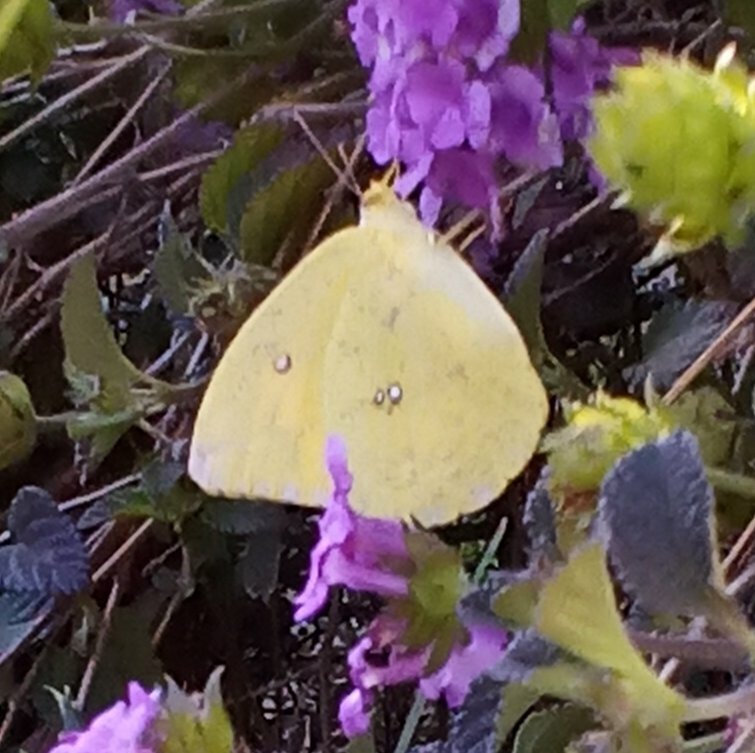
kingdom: Animalia
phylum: Arthropoda
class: Insecta
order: Lepidoptera
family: Pieridae
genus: Phoebis
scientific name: Phoebis agarithe
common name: Large orange sulphur
